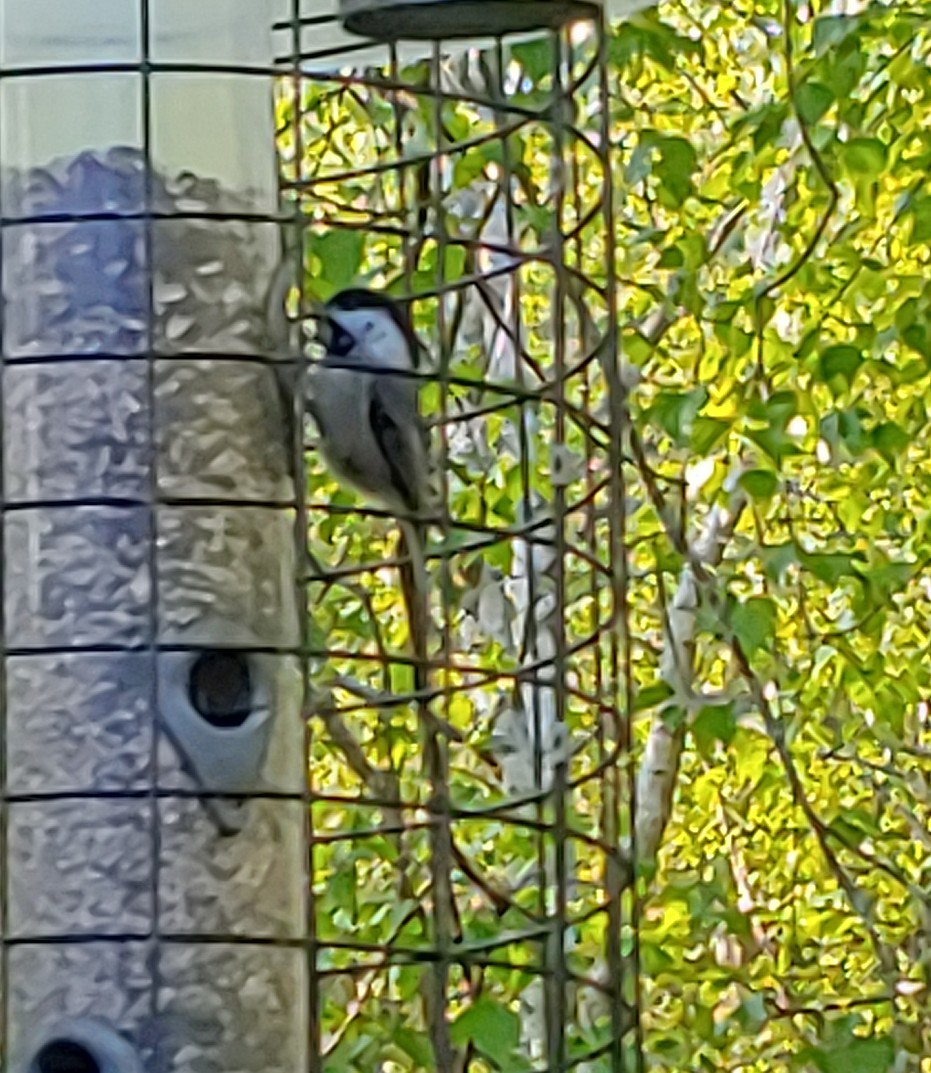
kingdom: Animalia
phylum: Chordata
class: Aves
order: Passeriformes
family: Paridae
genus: Poecile
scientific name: Poecile atricapillus
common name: Black-capped chickadee
